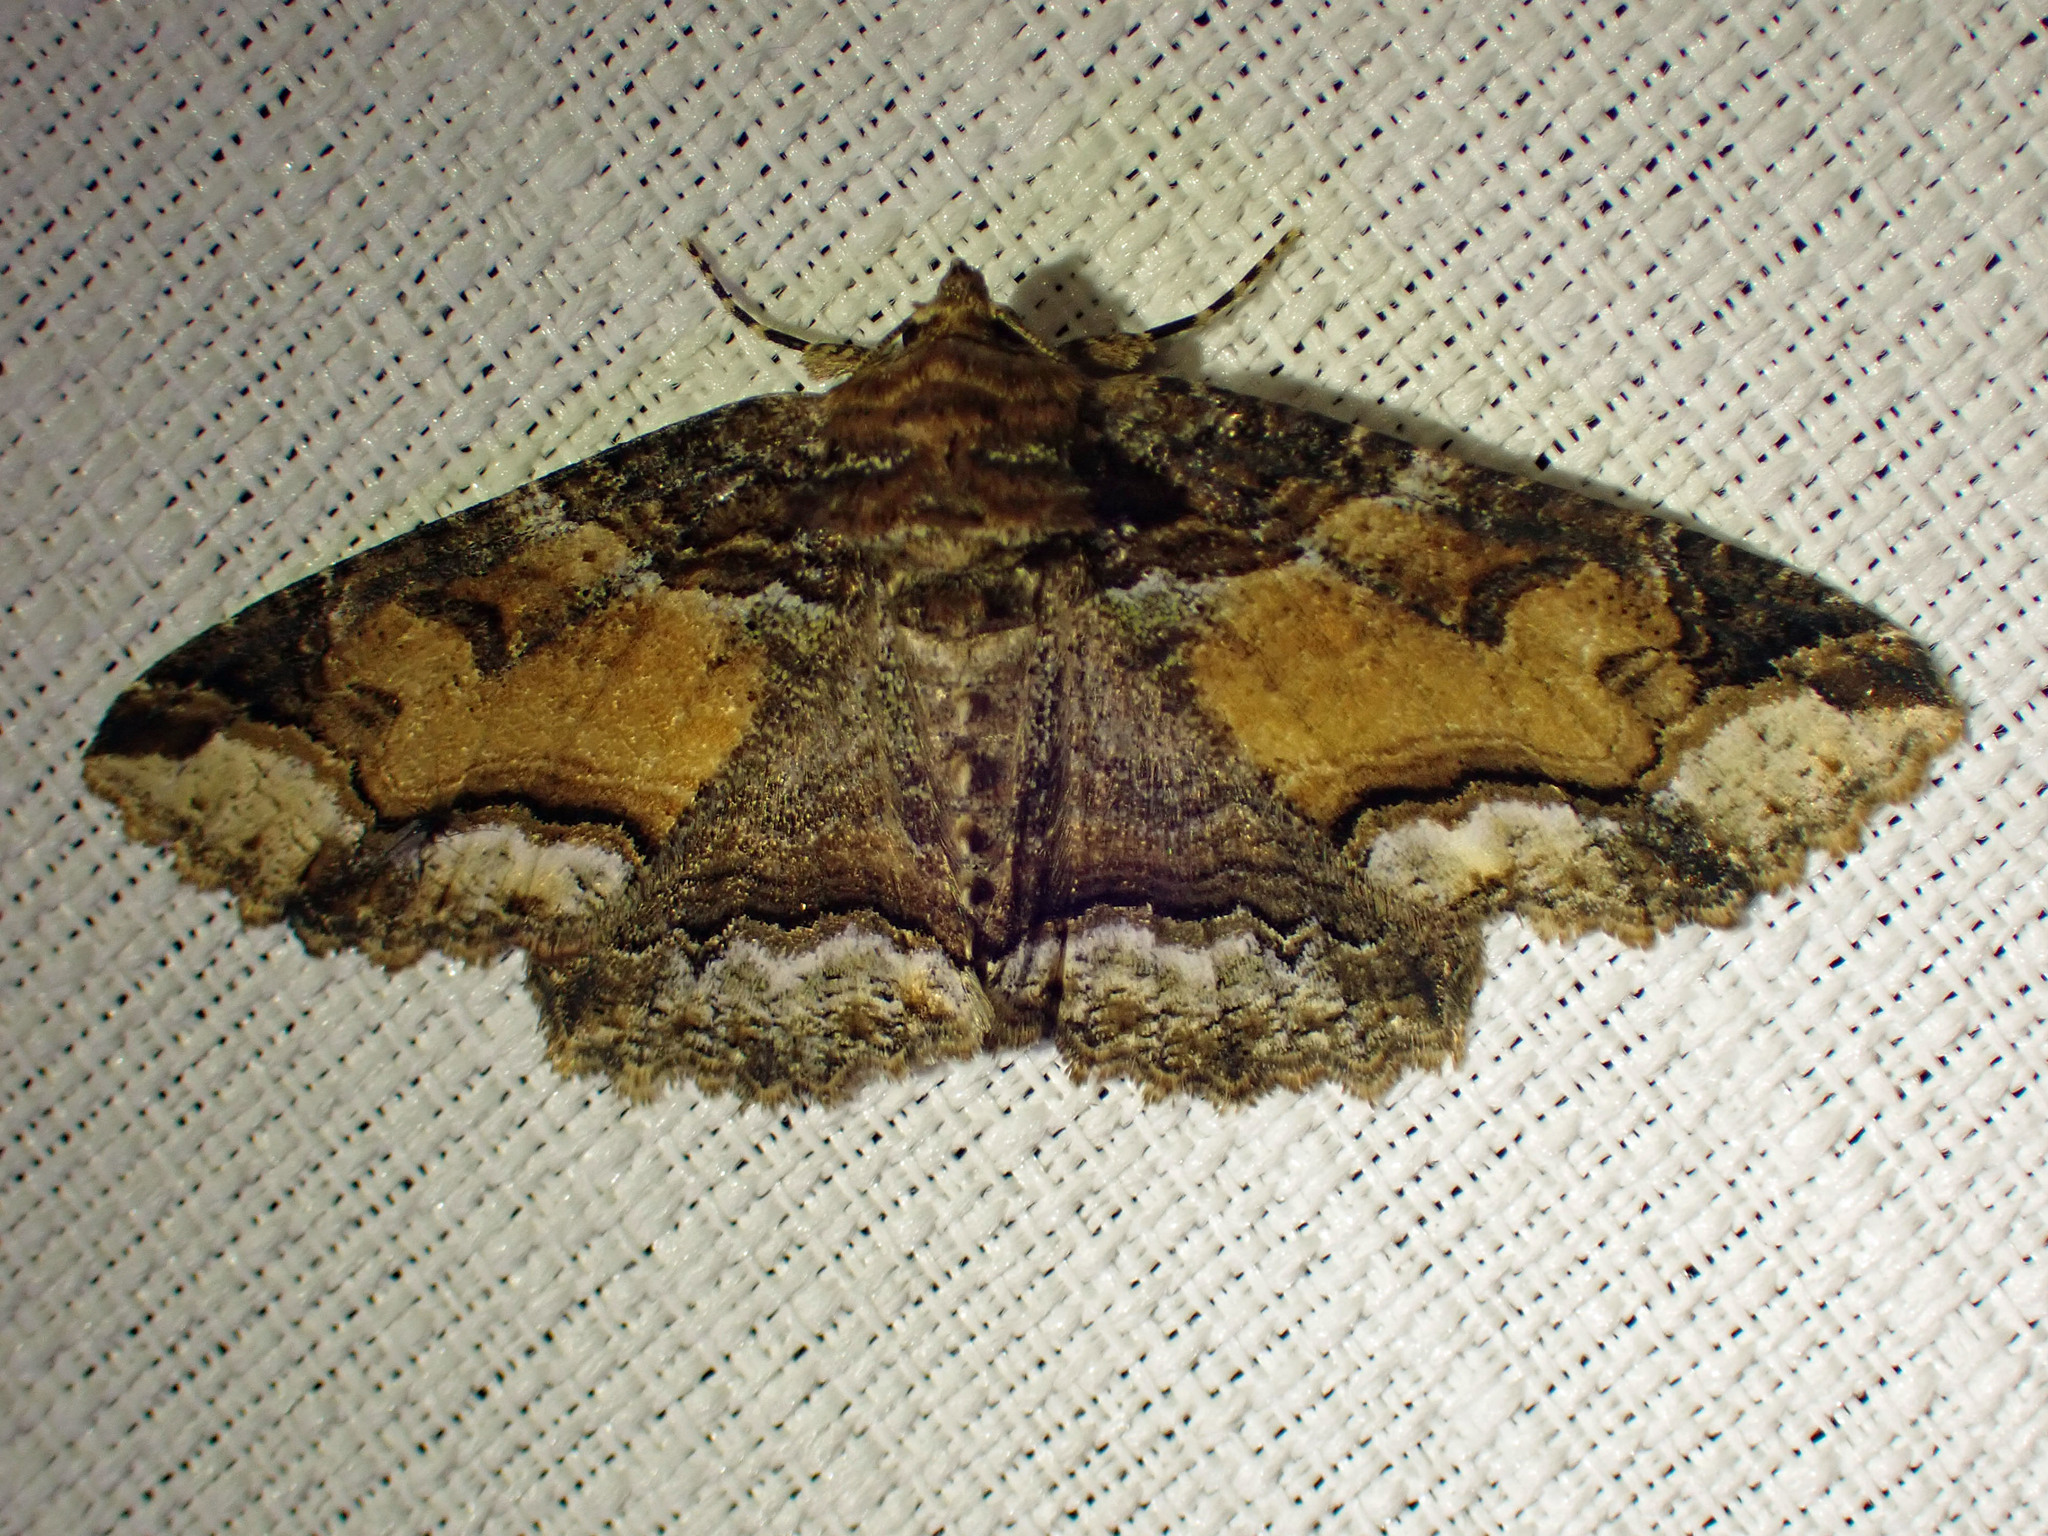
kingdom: Animalia
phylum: Arthropoda
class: Insecta
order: Lepidoptera
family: Erebidae
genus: Zale
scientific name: Zale minerea
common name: Colorful zale moth
